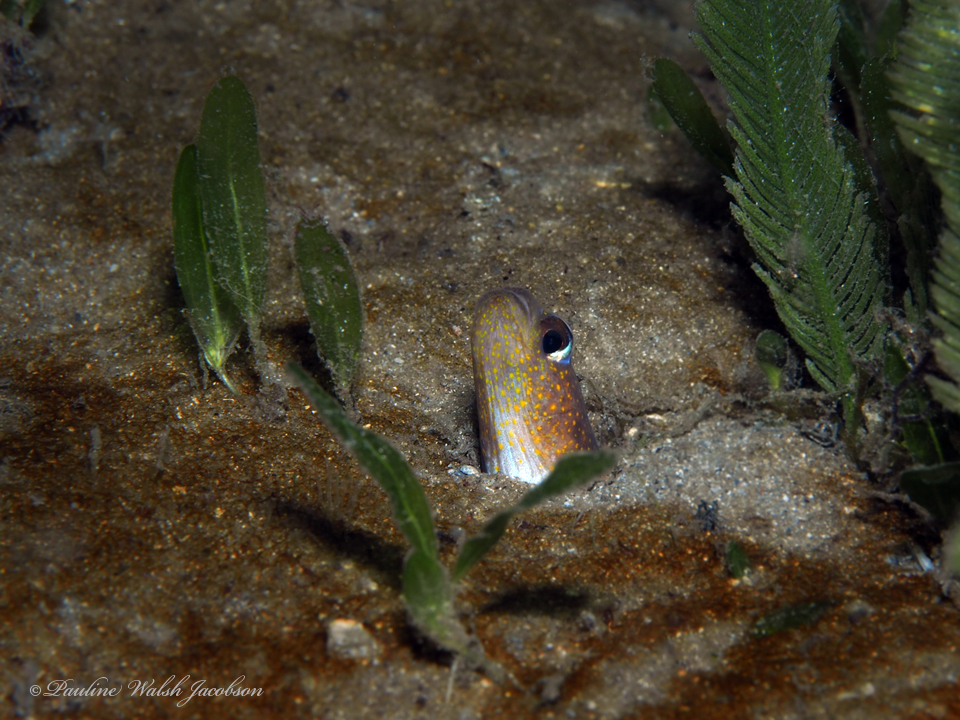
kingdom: Animalia
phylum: Chordata
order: Anguilliformes
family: Congridae
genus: Heteroconger
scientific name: Heteroconger longissimus
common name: Garden eel
